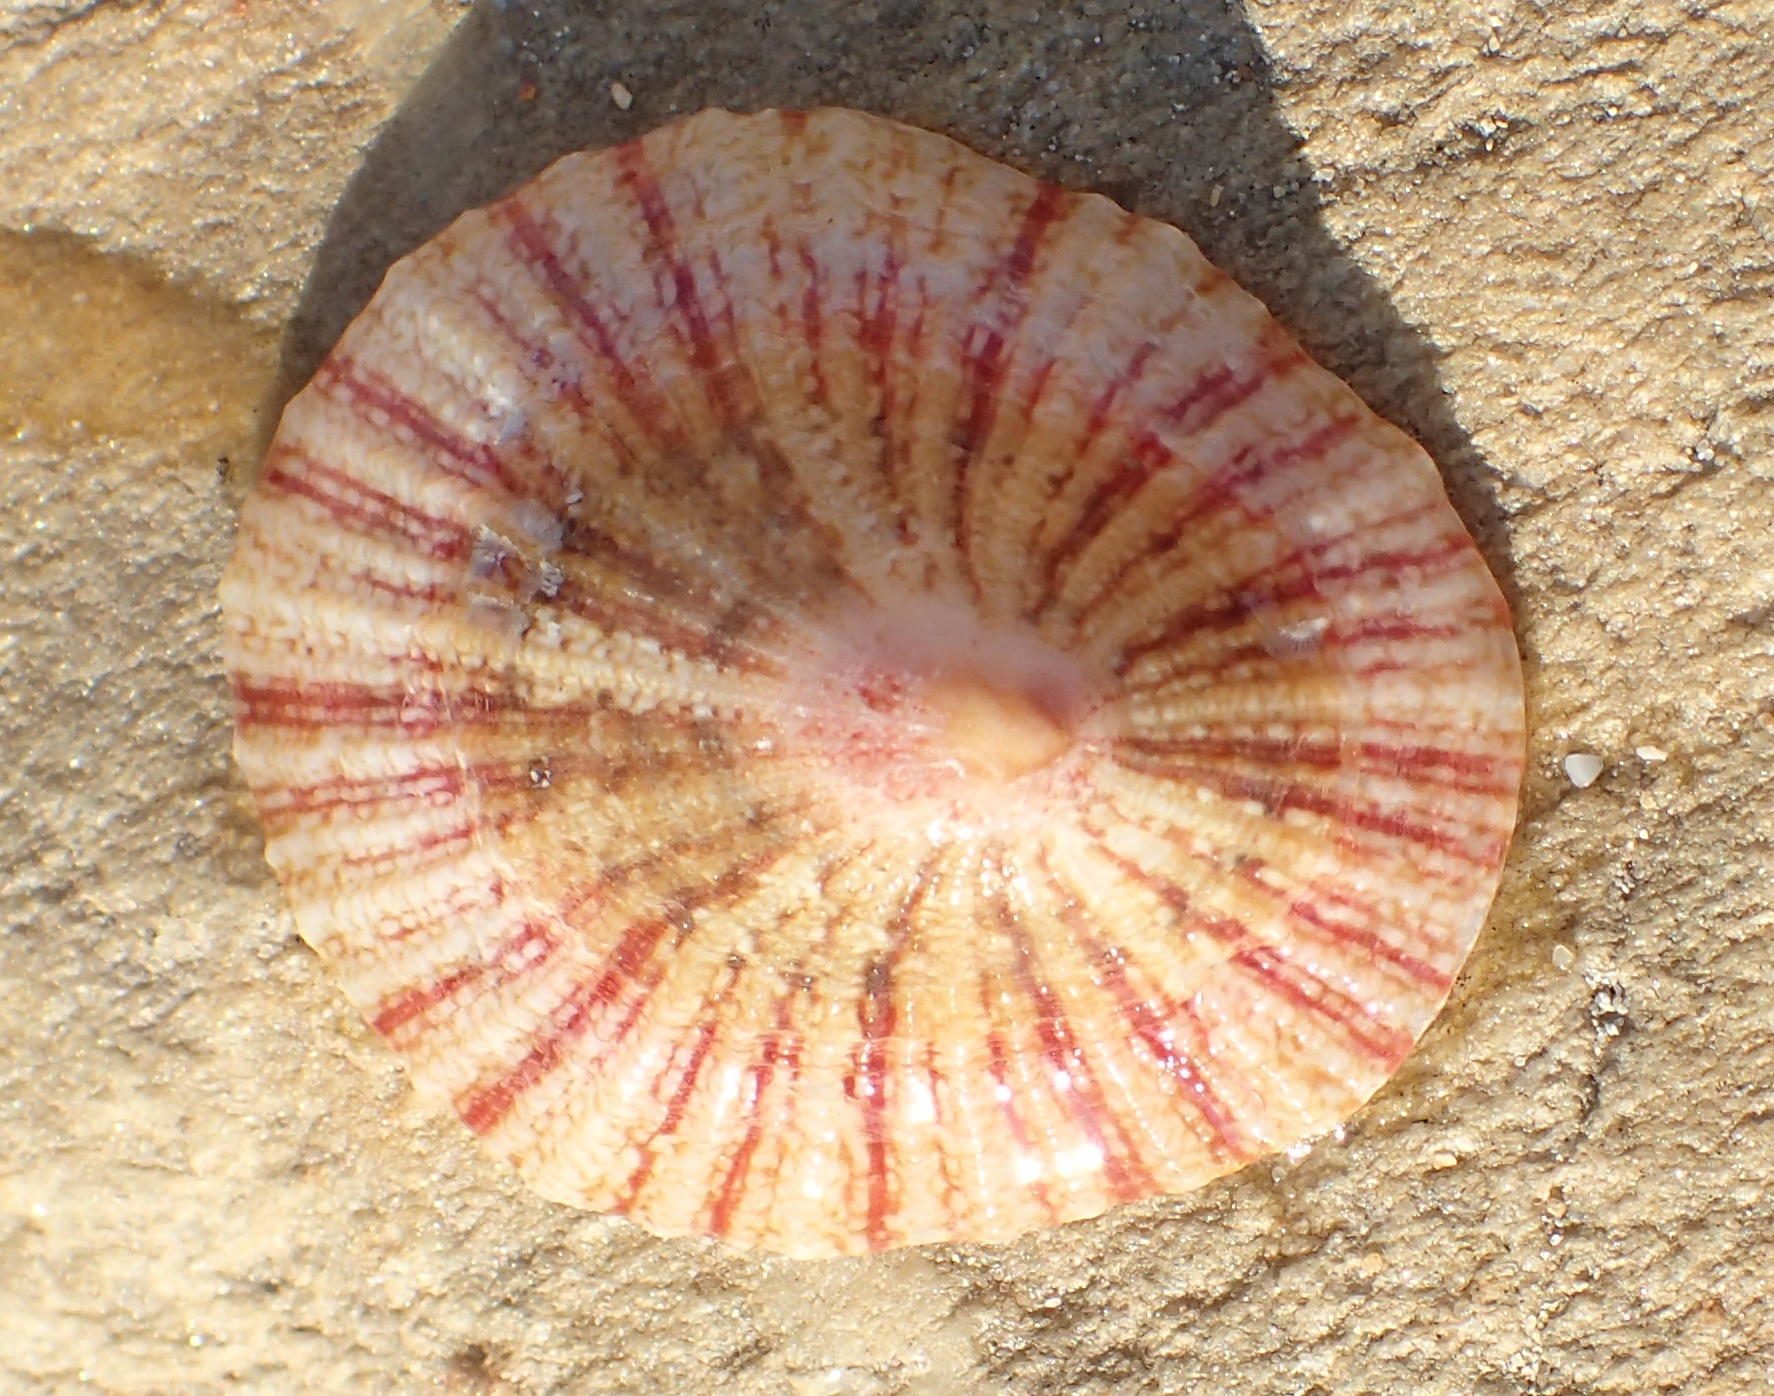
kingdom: Animalia
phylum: Mollusca
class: Gastropoda
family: Patellidae
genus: Cymbula
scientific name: Cymbula miniata
